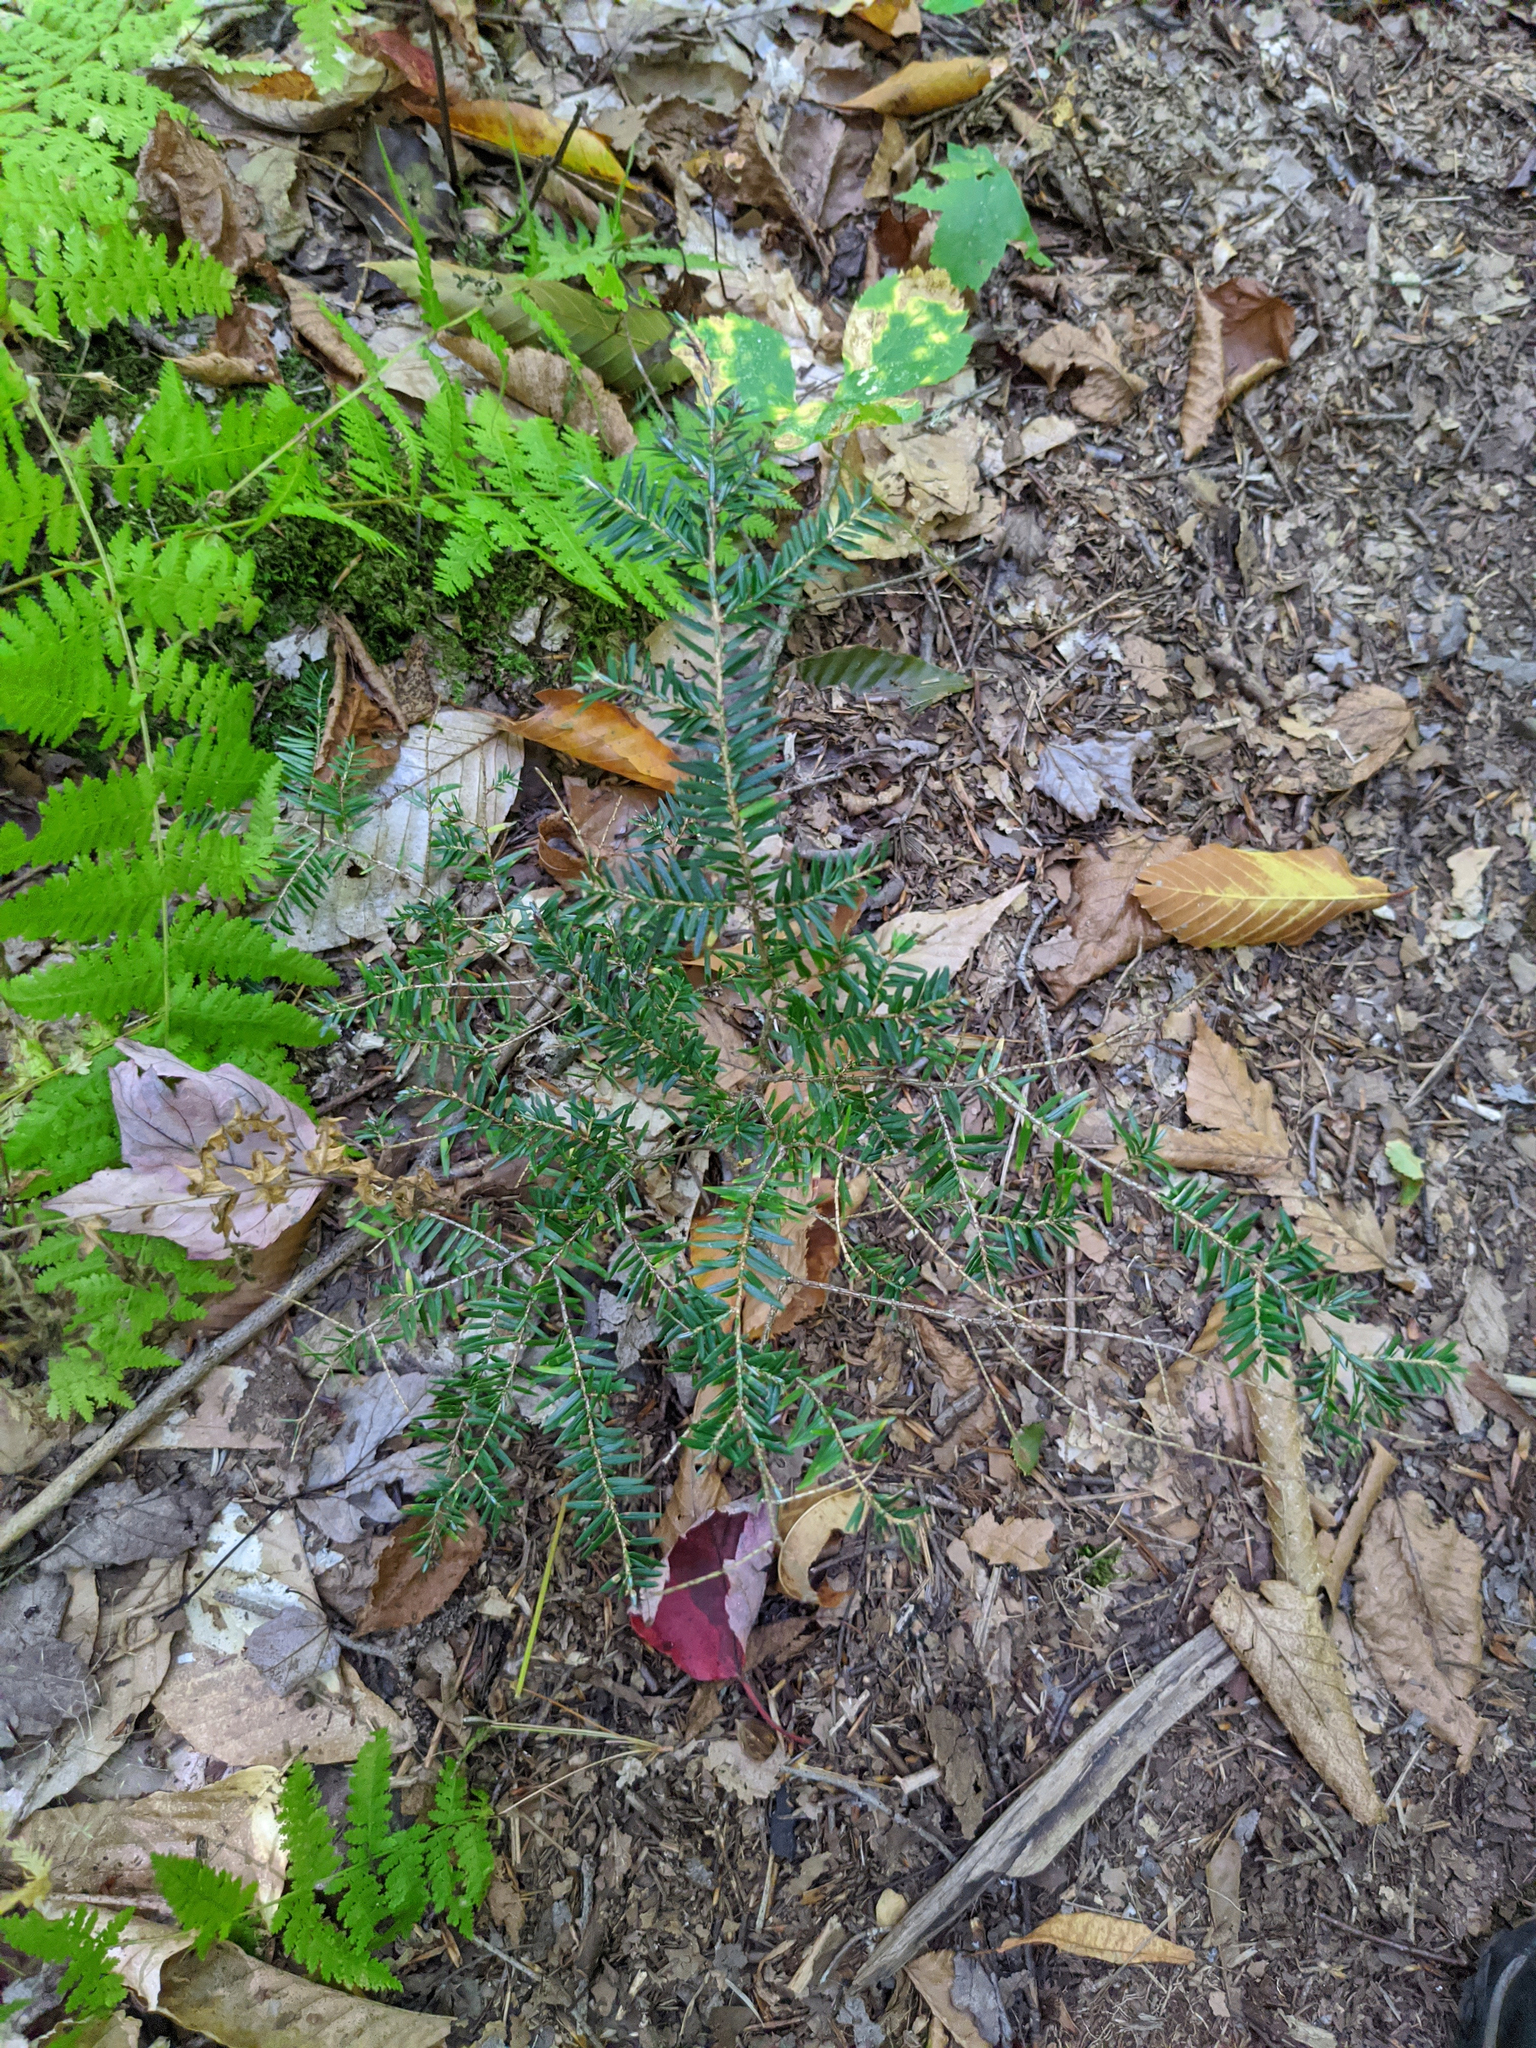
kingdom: Plantae
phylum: Tracheophyta
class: Pinopsida
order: Pinales
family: Pinaceae
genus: Tsuga
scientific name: Tsuga canadensis
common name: Eastern hemlock
